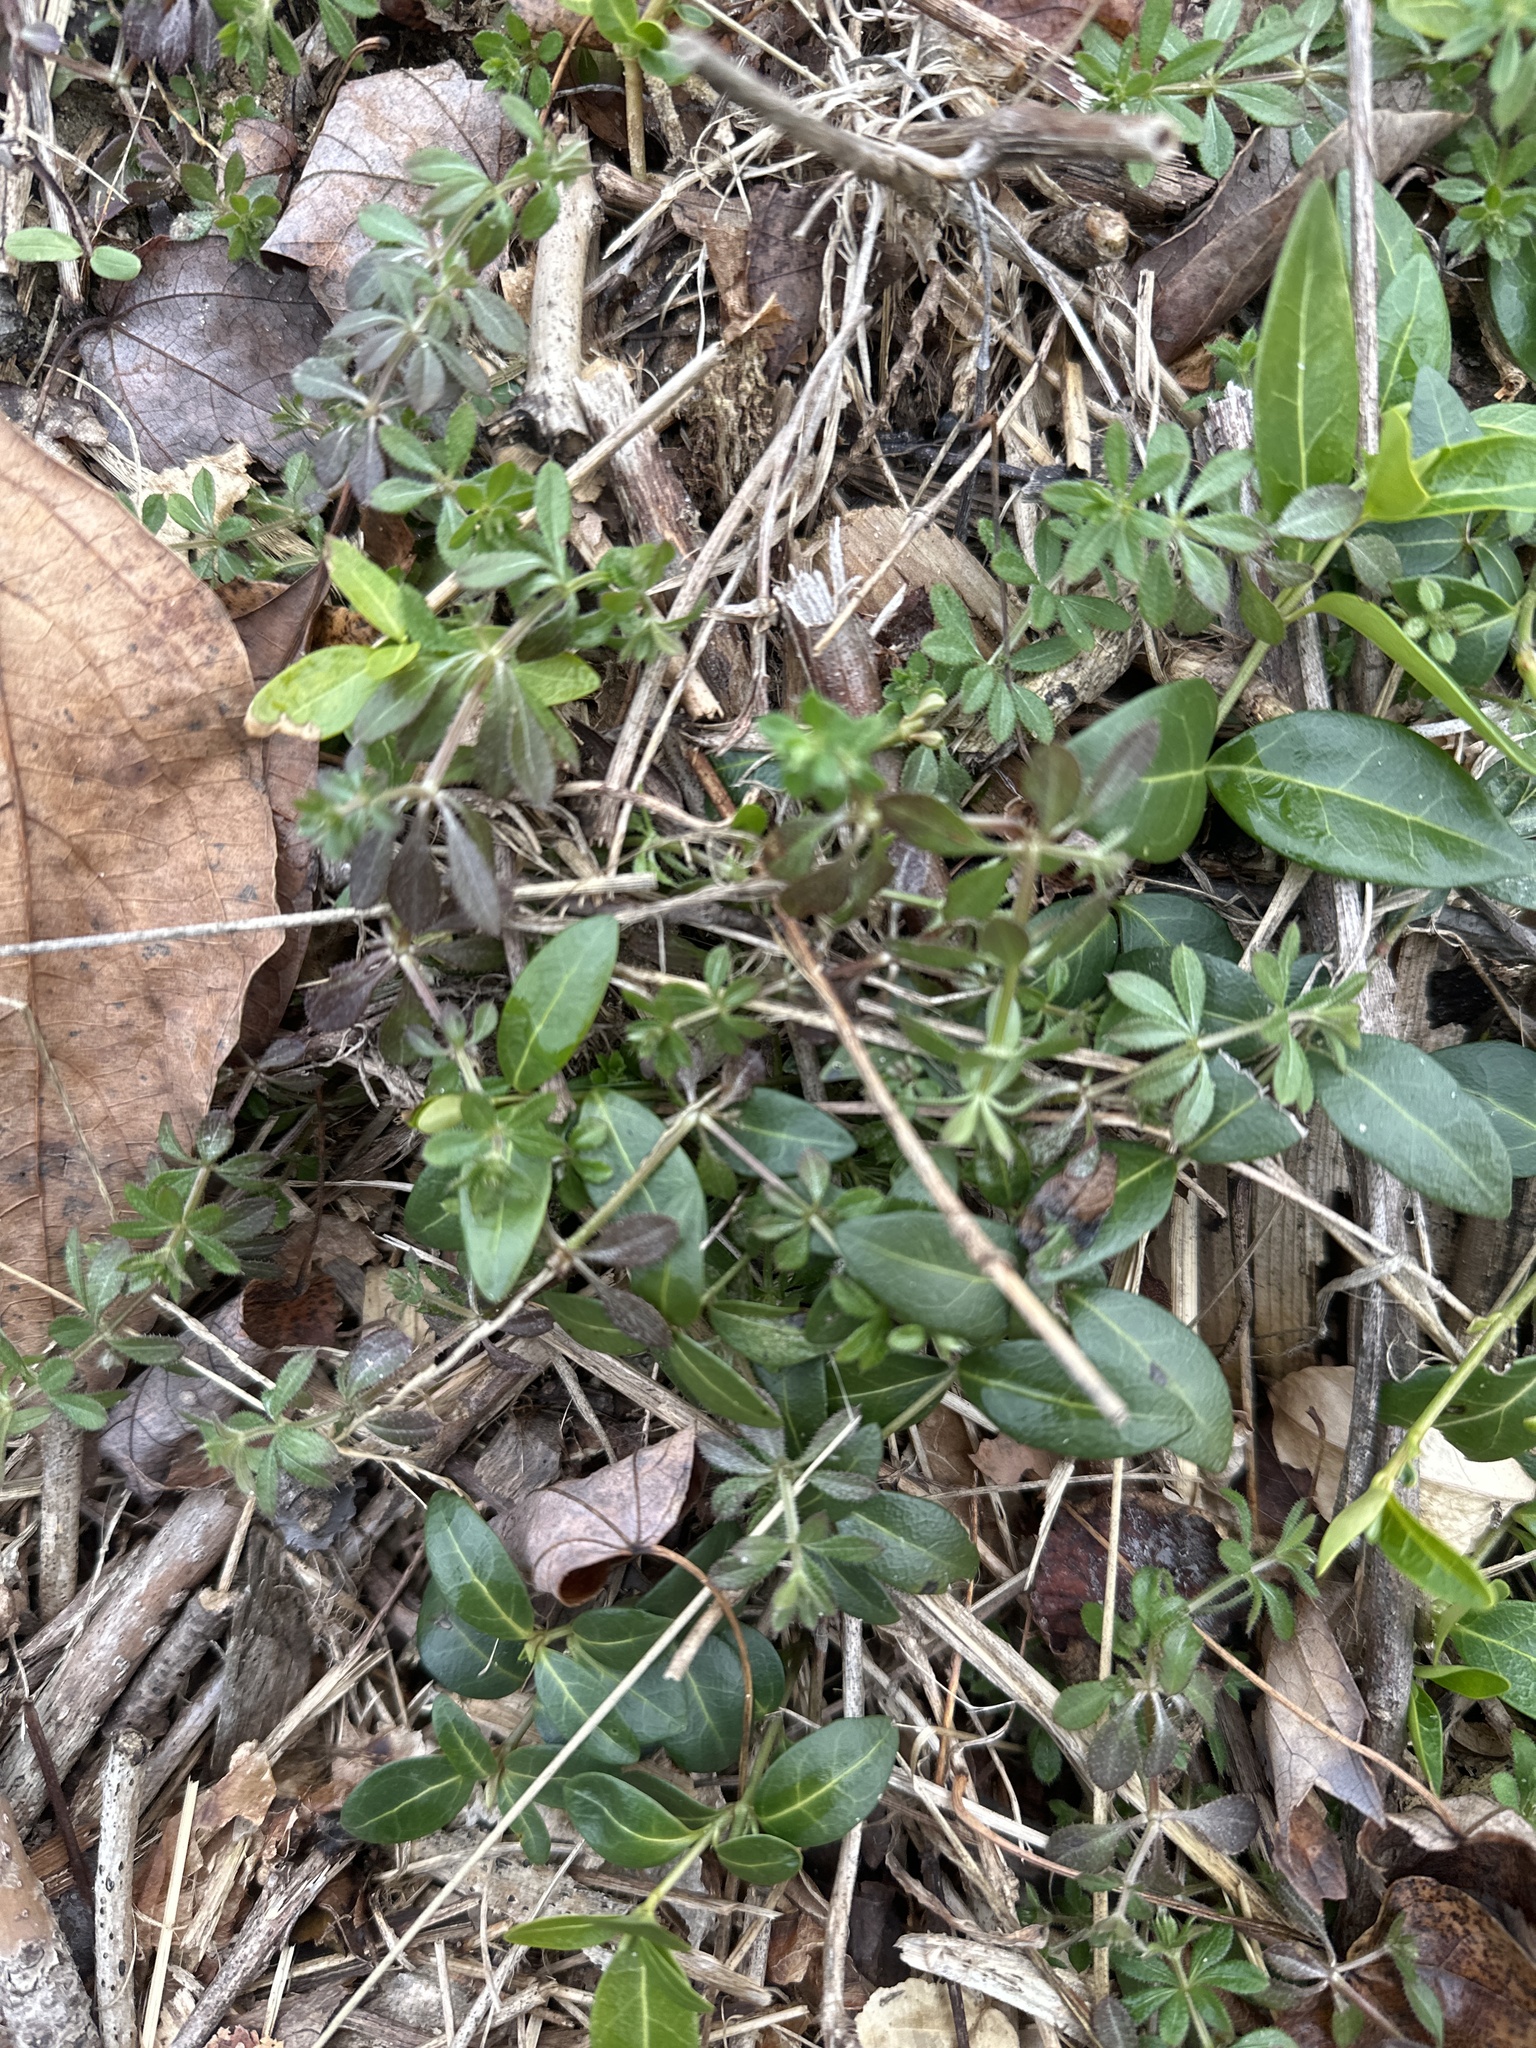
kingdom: Plantae
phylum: Tracheophyta
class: Magnoliopsida
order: Gentianales
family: Rubiaceae
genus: Galium
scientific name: Galium aparine
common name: Cleavers
